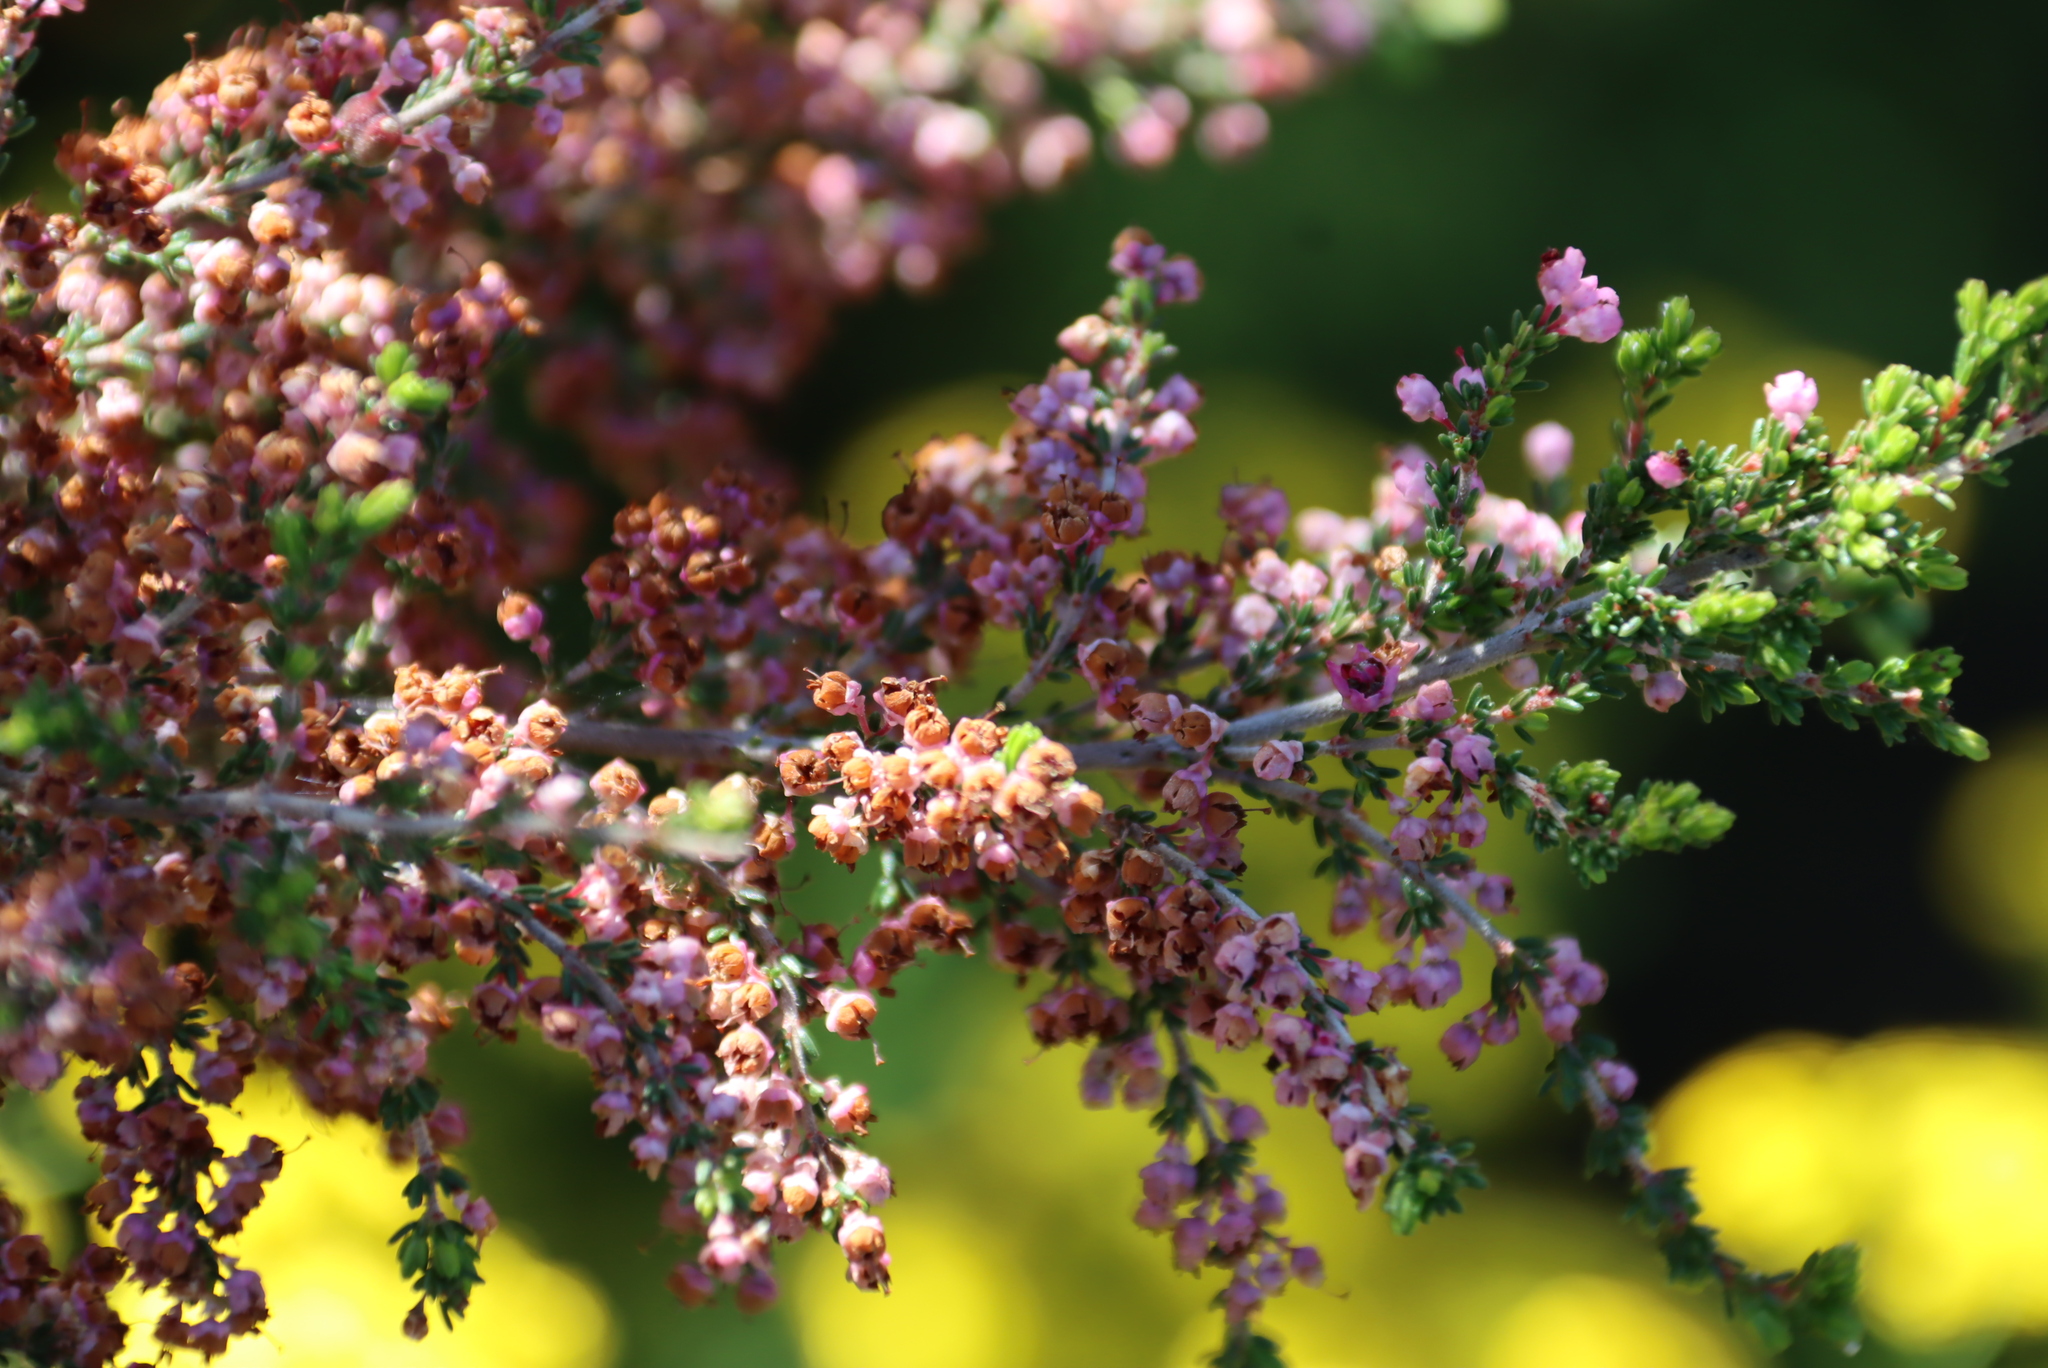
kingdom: Plantae
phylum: Tracheophyta
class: Magnoliopsida
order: Ericales
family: Ericaceae
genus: Erica
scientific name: Erica sparsa
